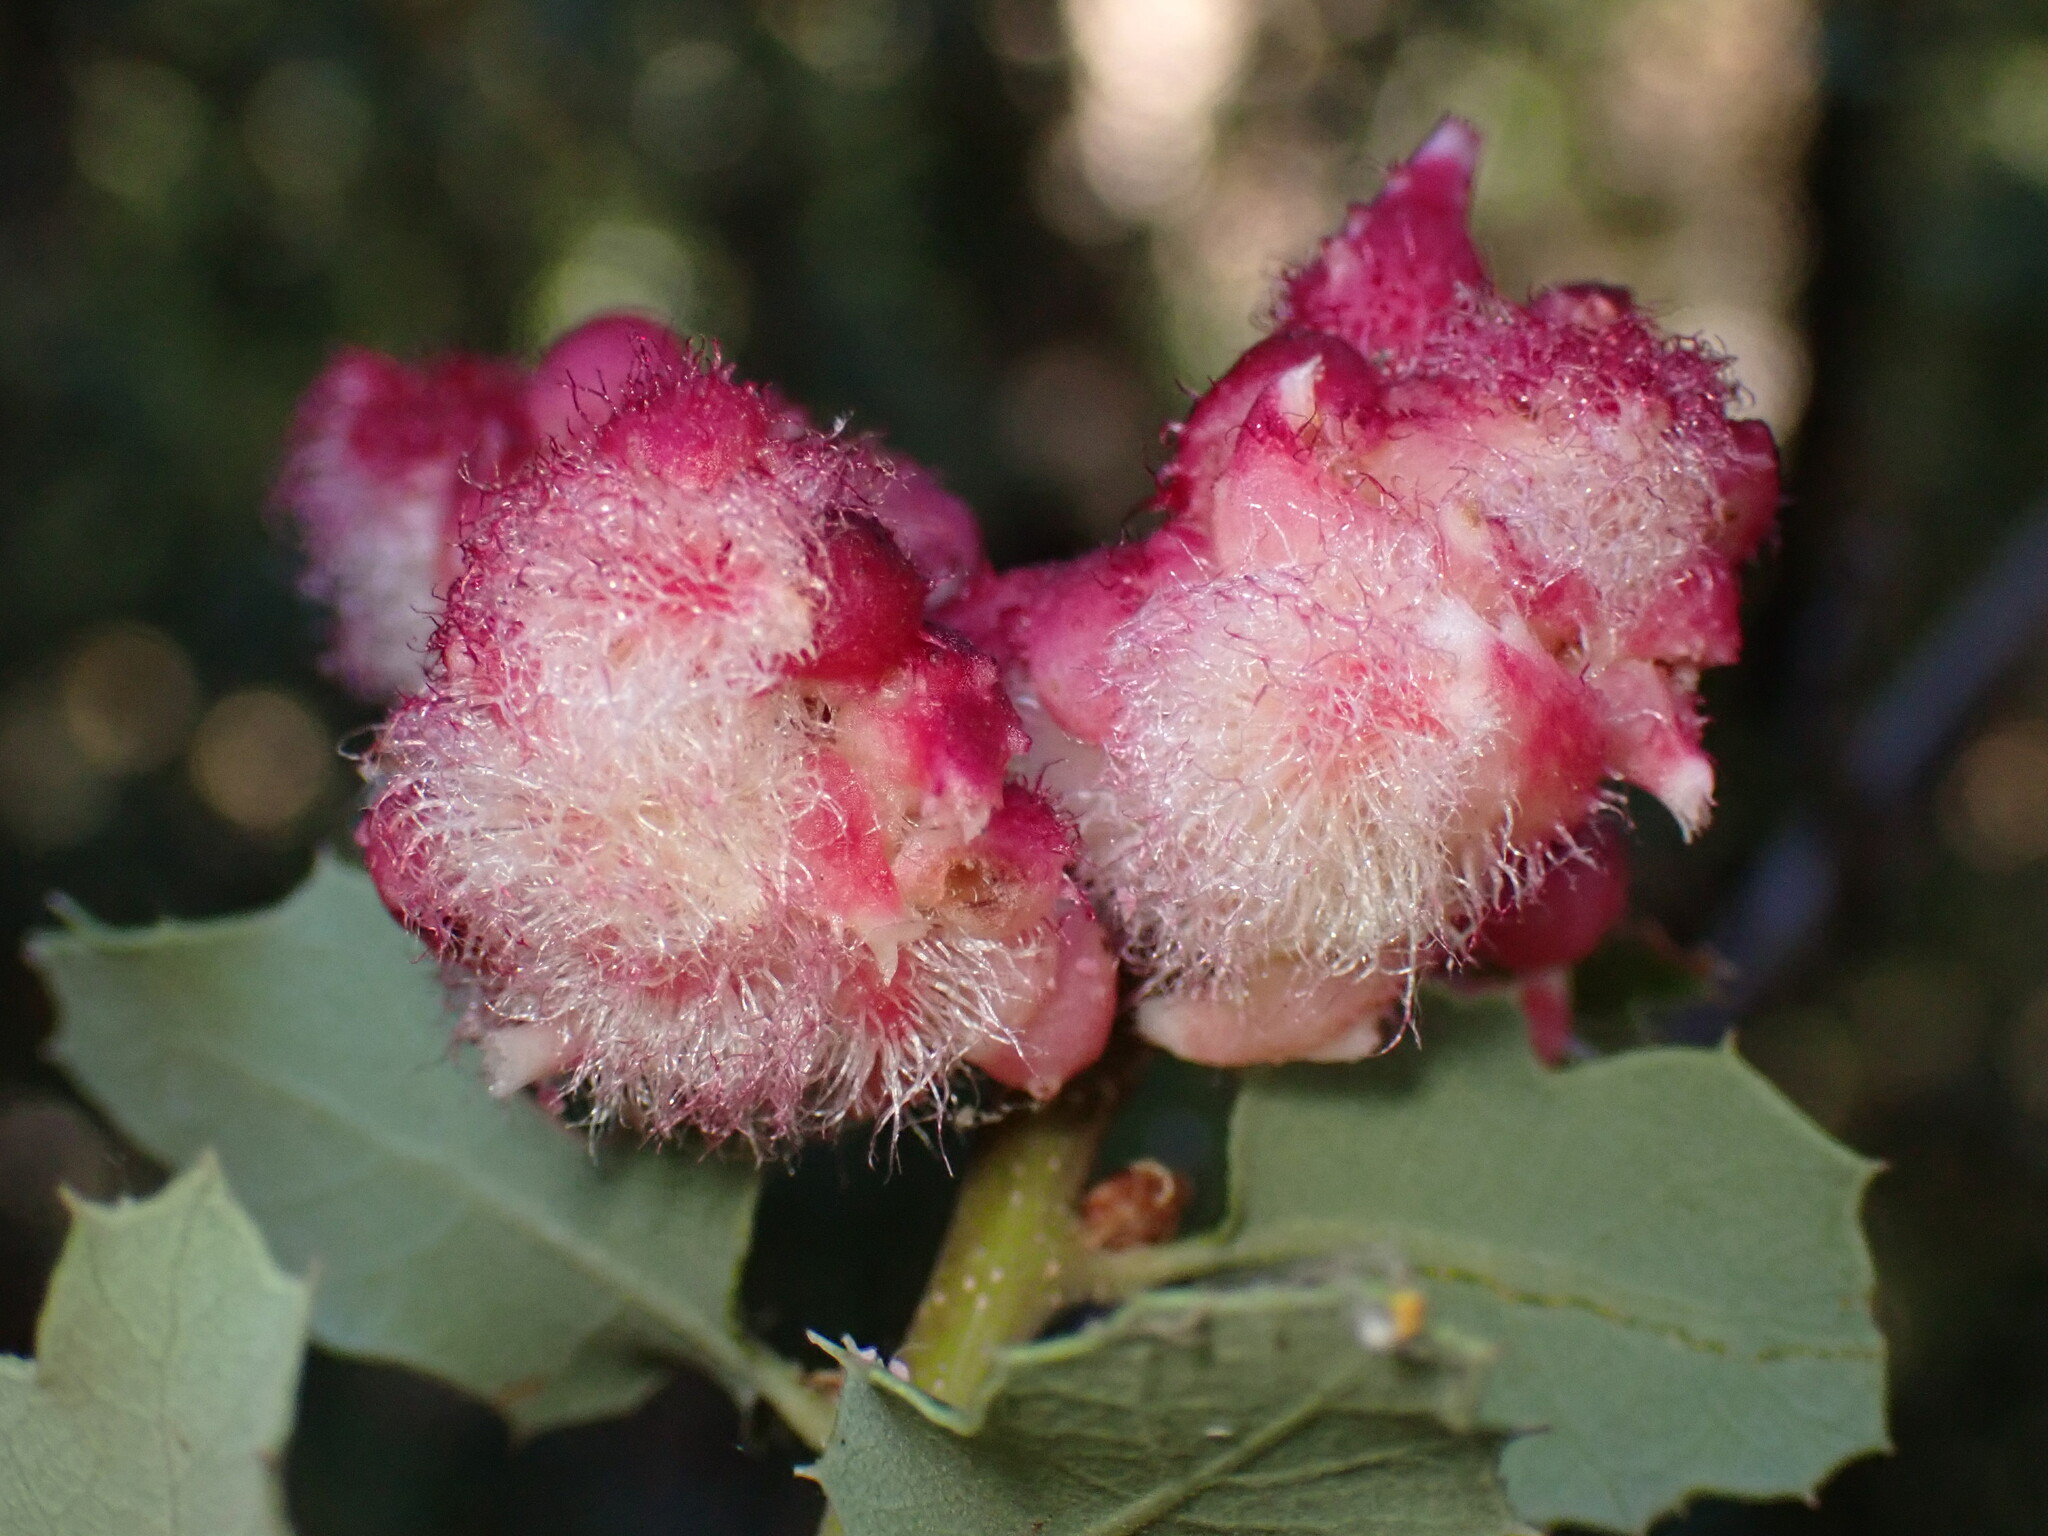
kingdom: Animalia
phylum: Arthropoda
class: Insecta
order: Hymenoptera
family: Cynipidae
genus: Andricus
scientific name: Andricus
